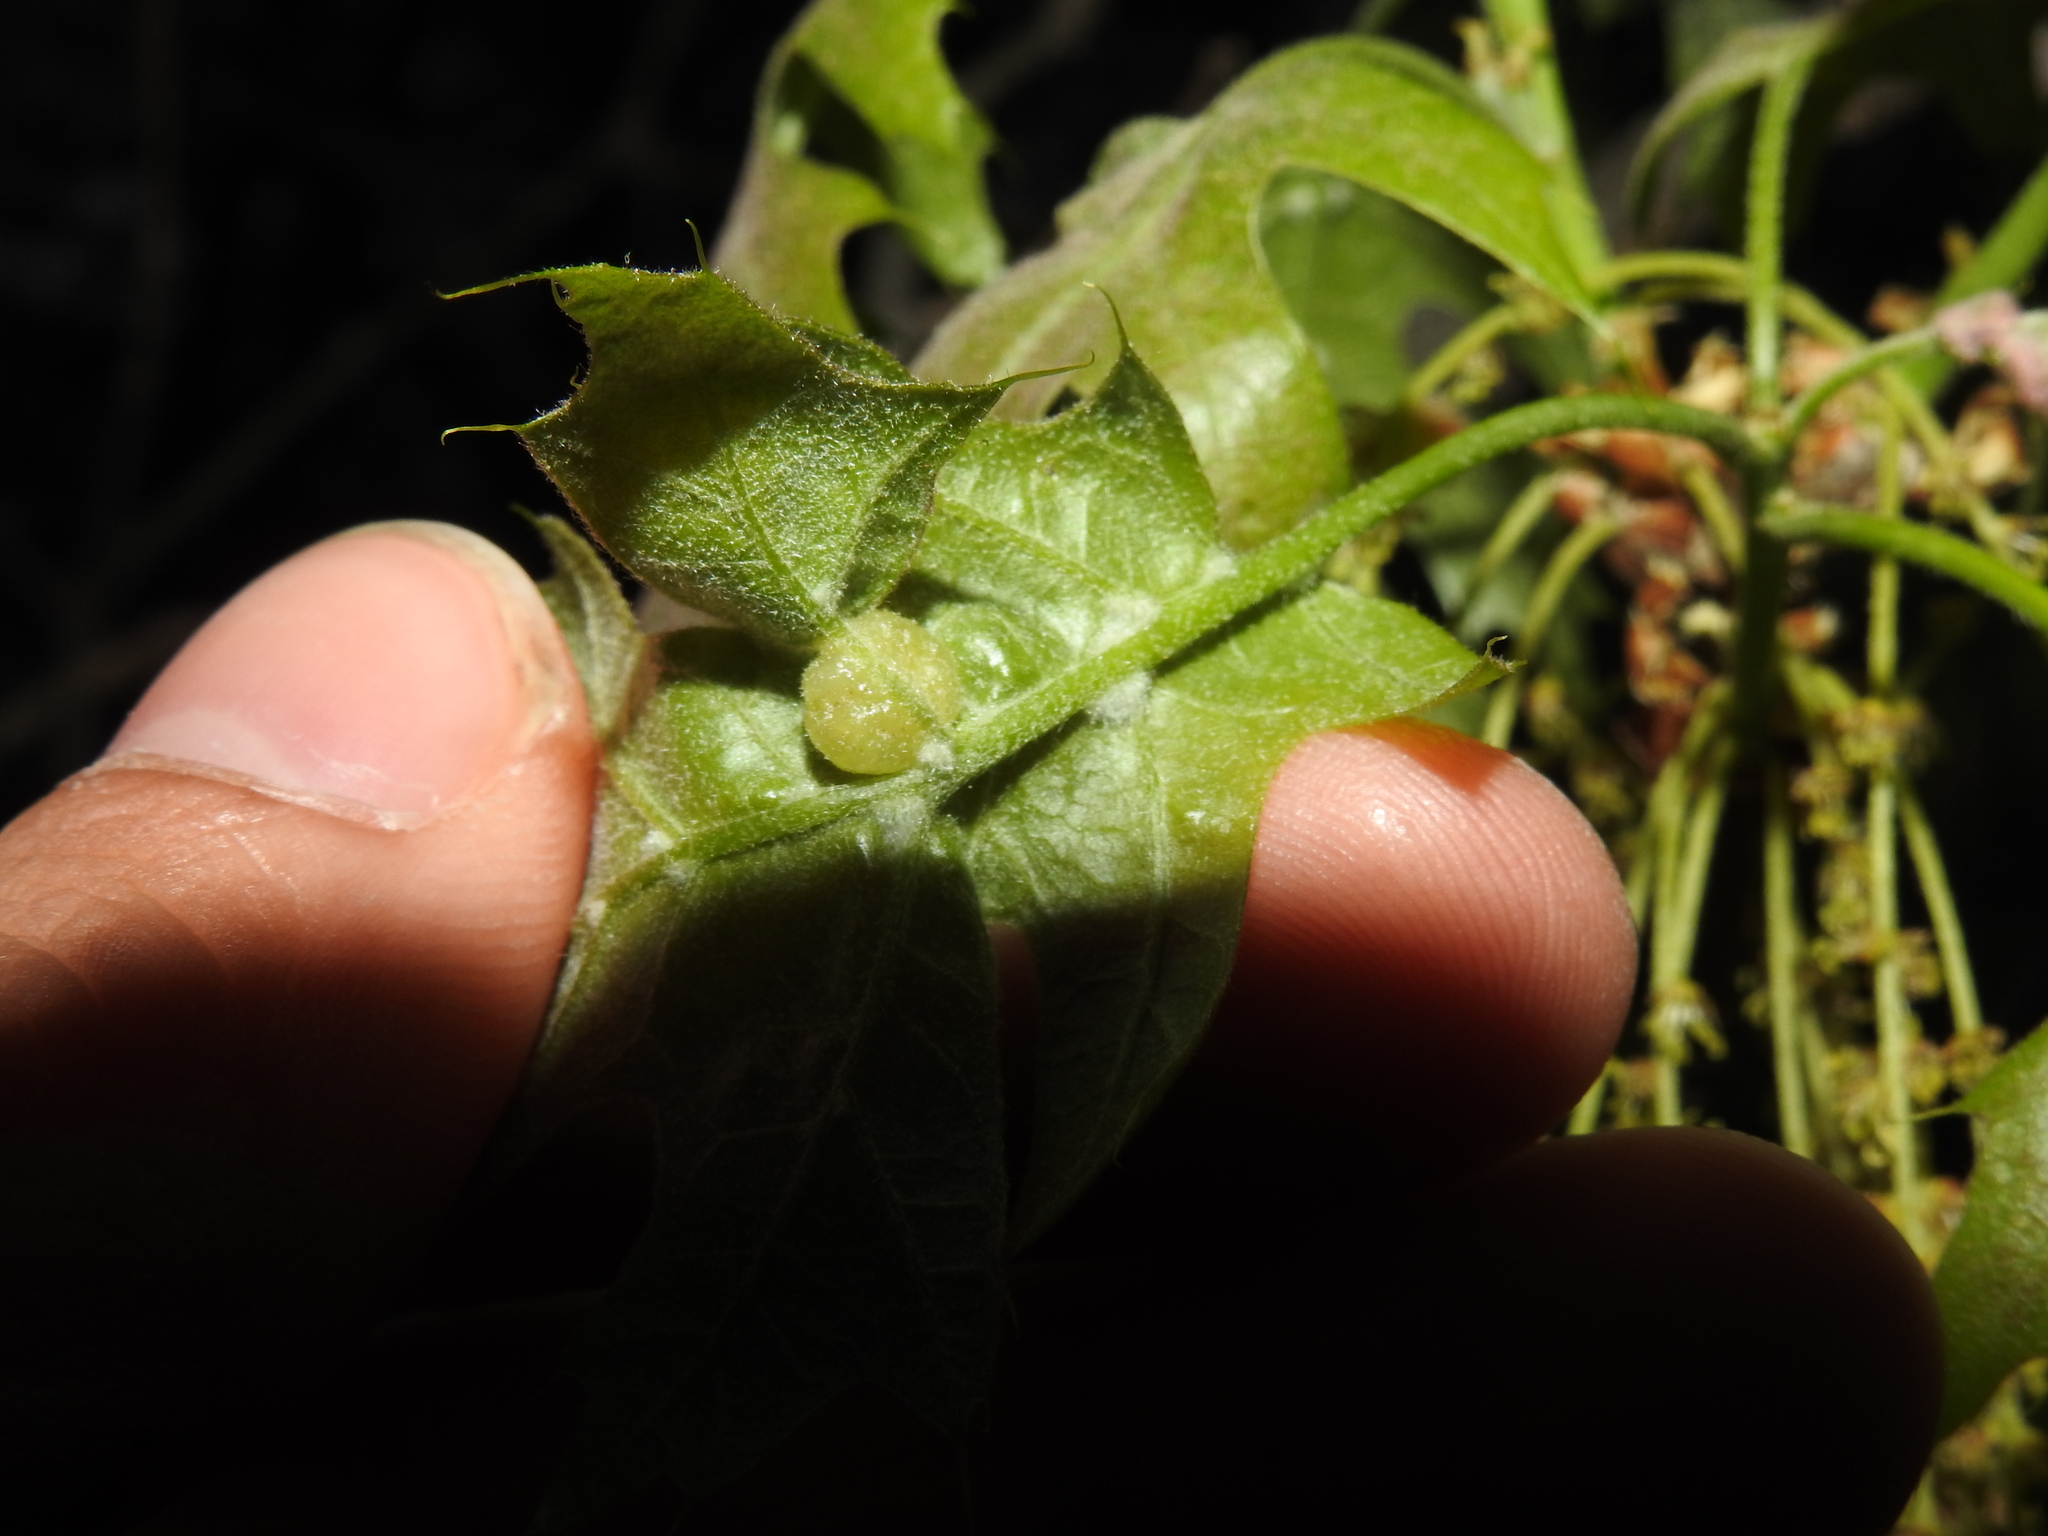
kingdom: Animalia
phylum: Arthropoda
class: Insecta
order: Diptera
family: Cecidomyiidae
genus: Macrodiplosis
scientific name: Macrodiplosis majalis
